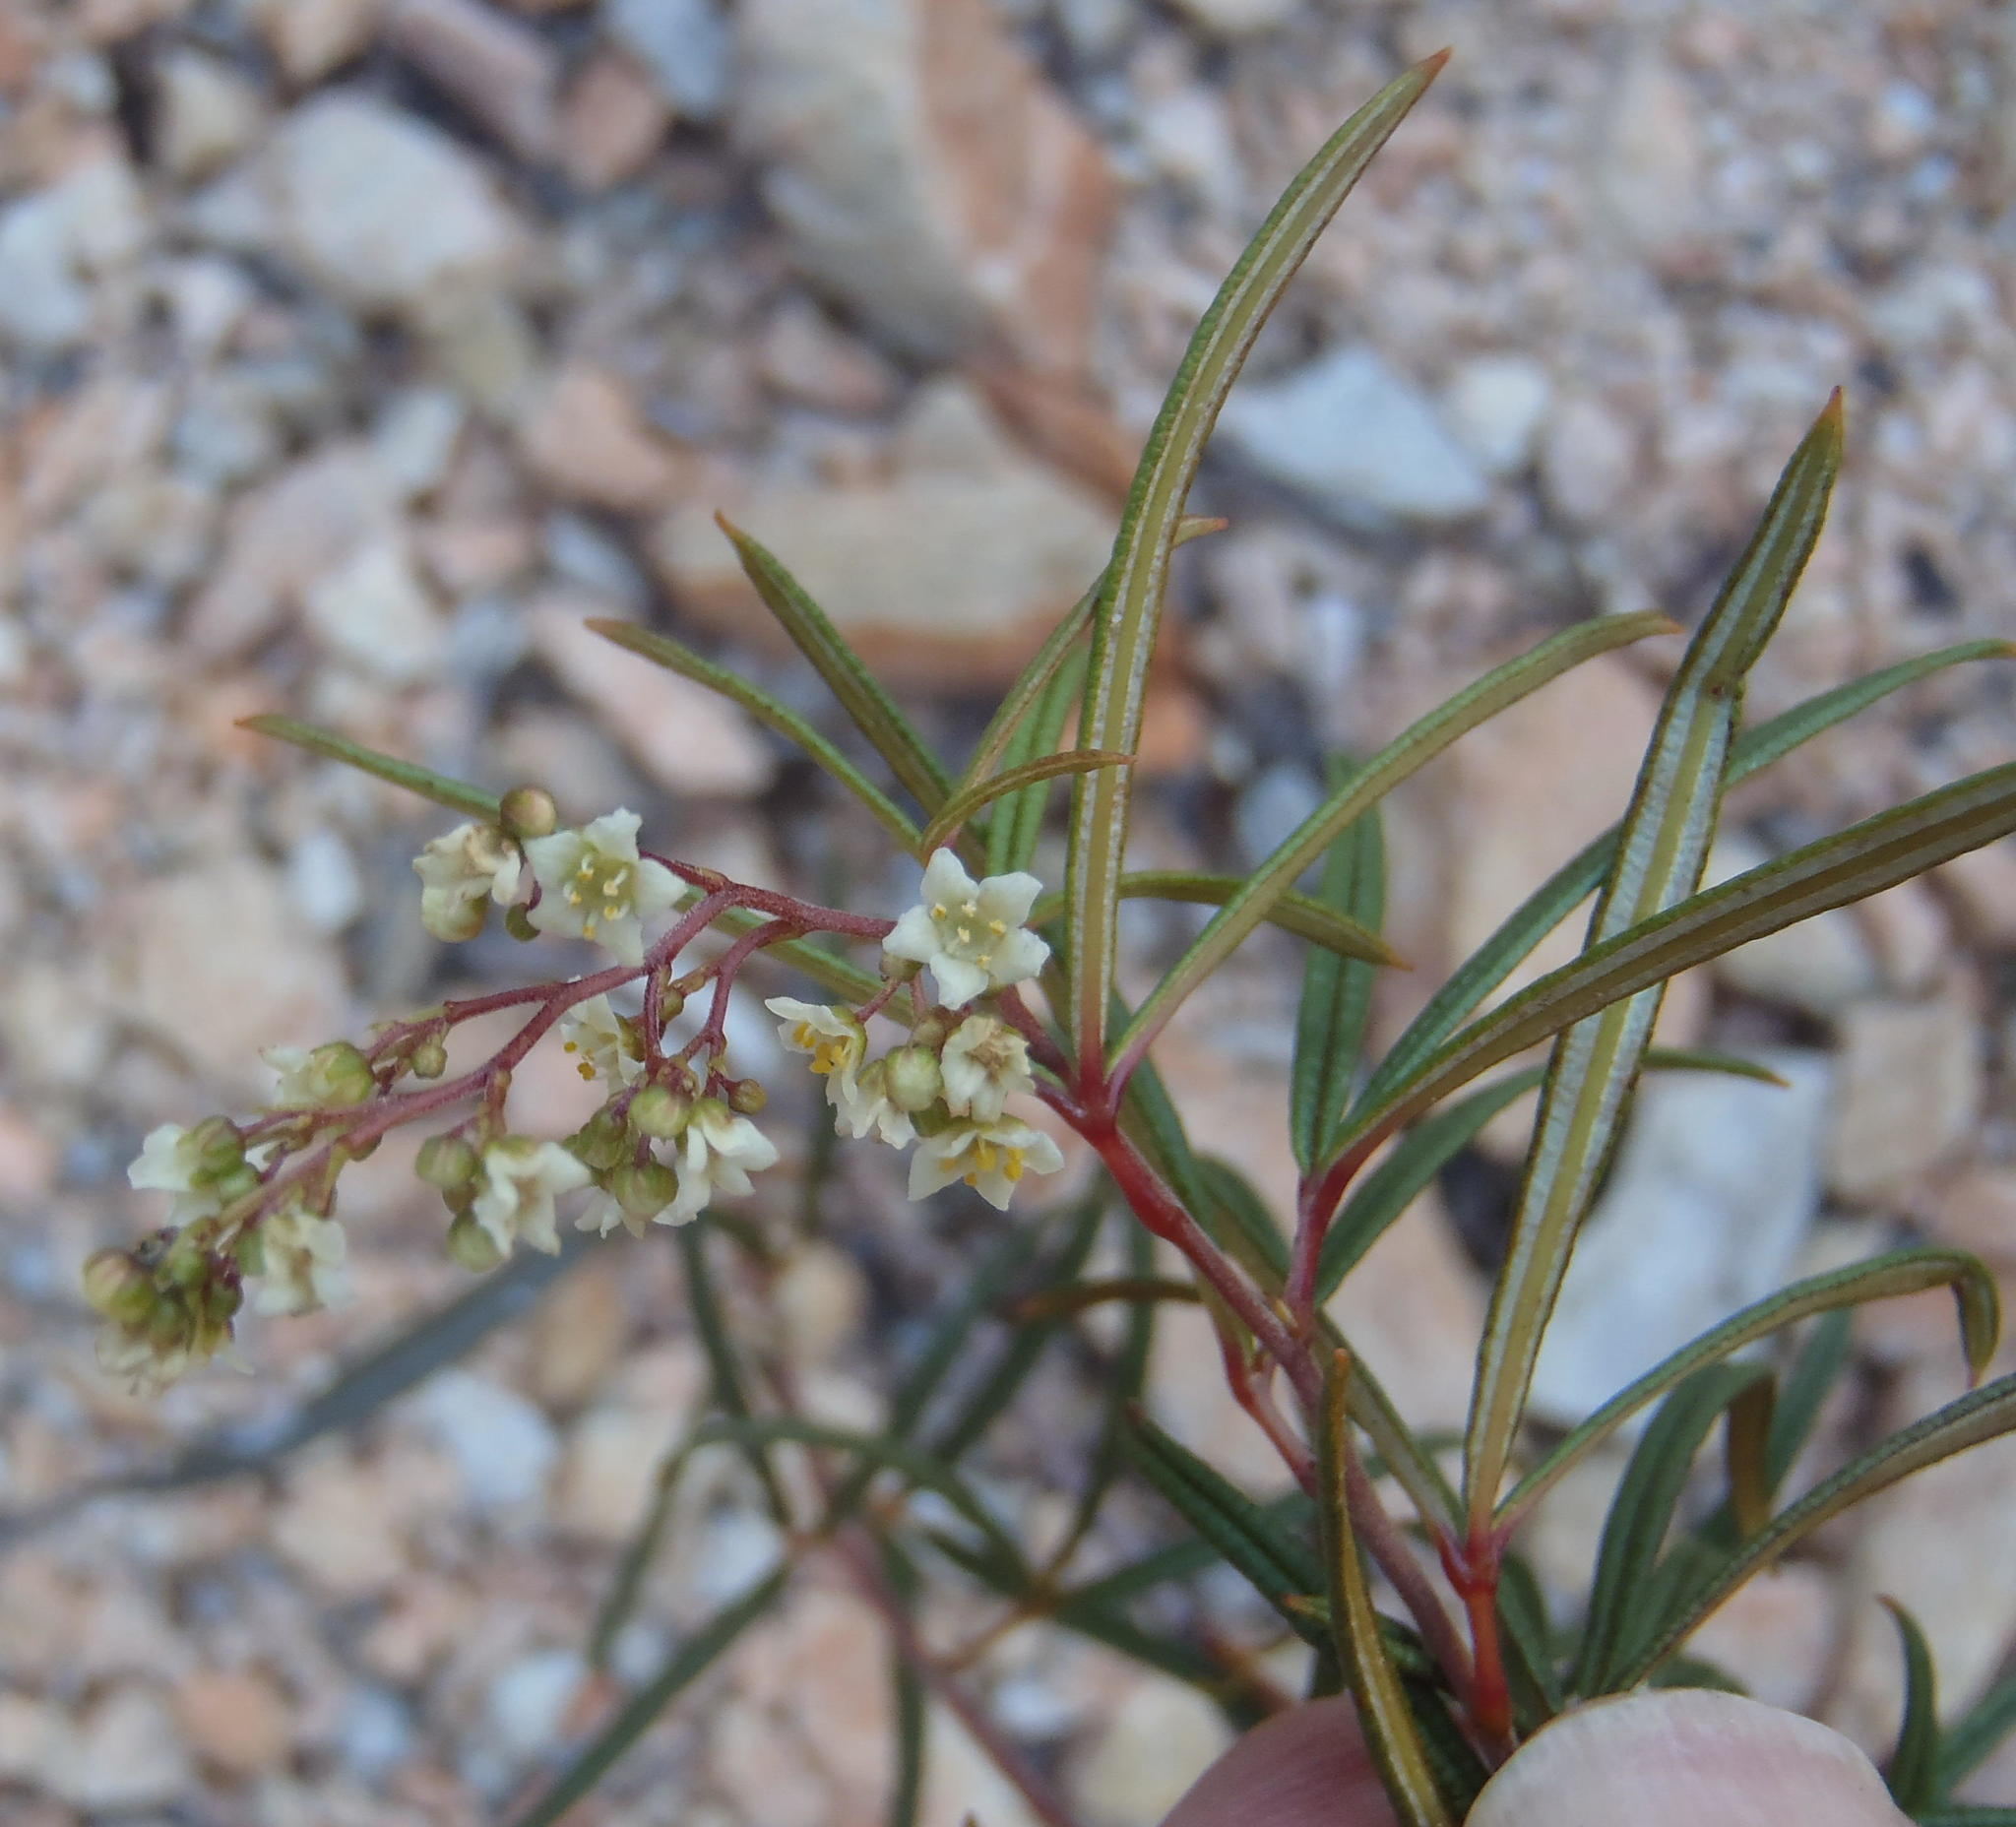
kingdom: Plantae
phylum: Tracheophyta
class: Magnoliopsida
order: Sapindales
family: Anacardiaceae
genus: Searsia
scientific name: Searsia rosmarinifolia
